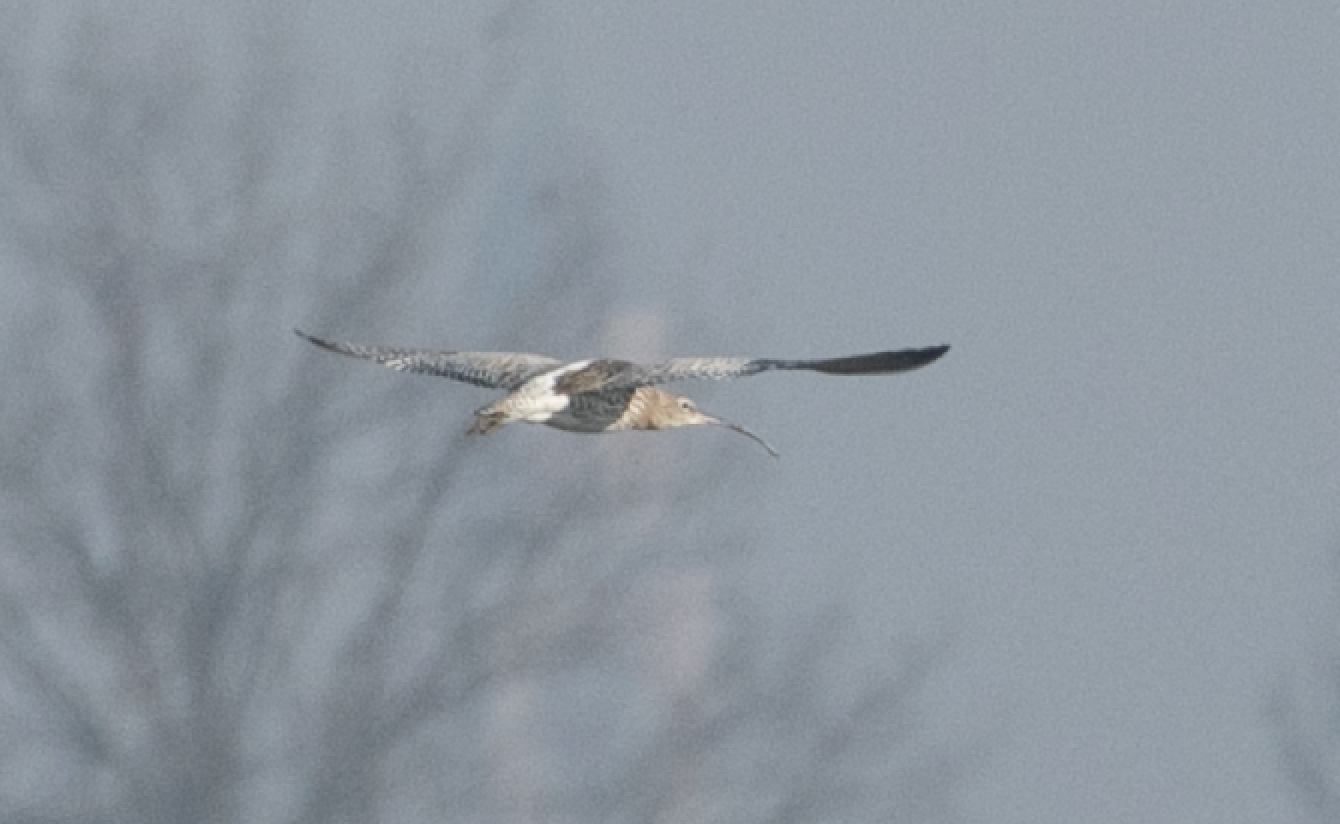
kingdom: Animalia
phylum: Chordata
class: Aves
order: Charadriiformes
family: Scolopacidae
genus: Numenius
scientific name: Numenius arquata
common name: Eurasian curlew
